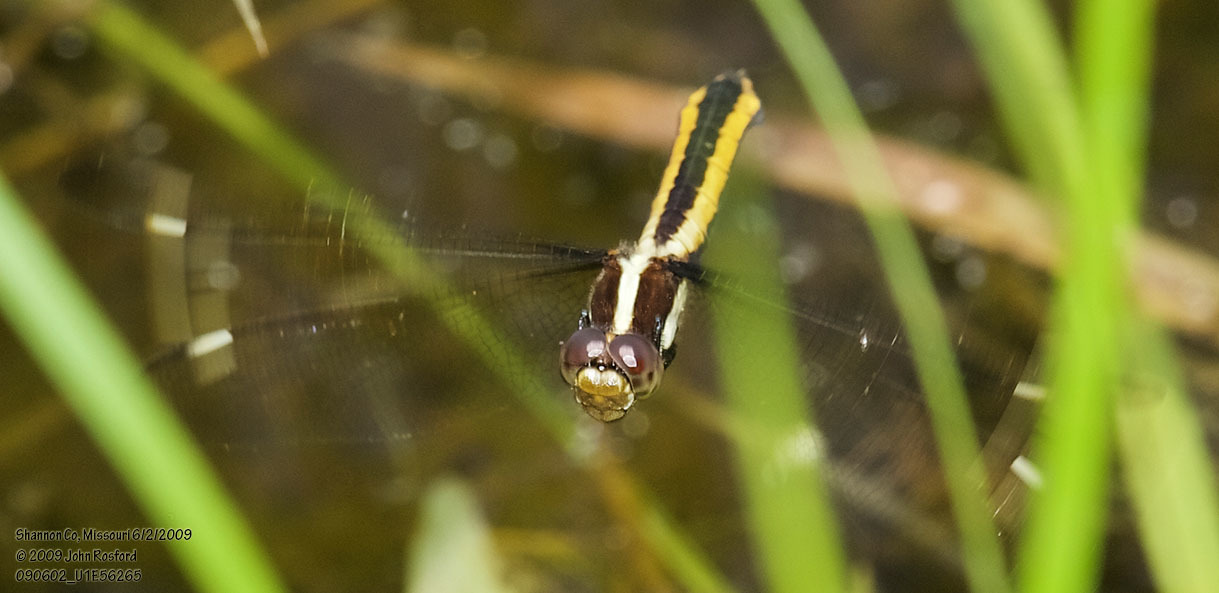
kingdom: Animalia
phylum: Arthropoda
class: Insecta
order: Odonata
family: Libellulidae
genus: Libellula
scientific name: Libellula cyanea
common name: Spangled skimmer
